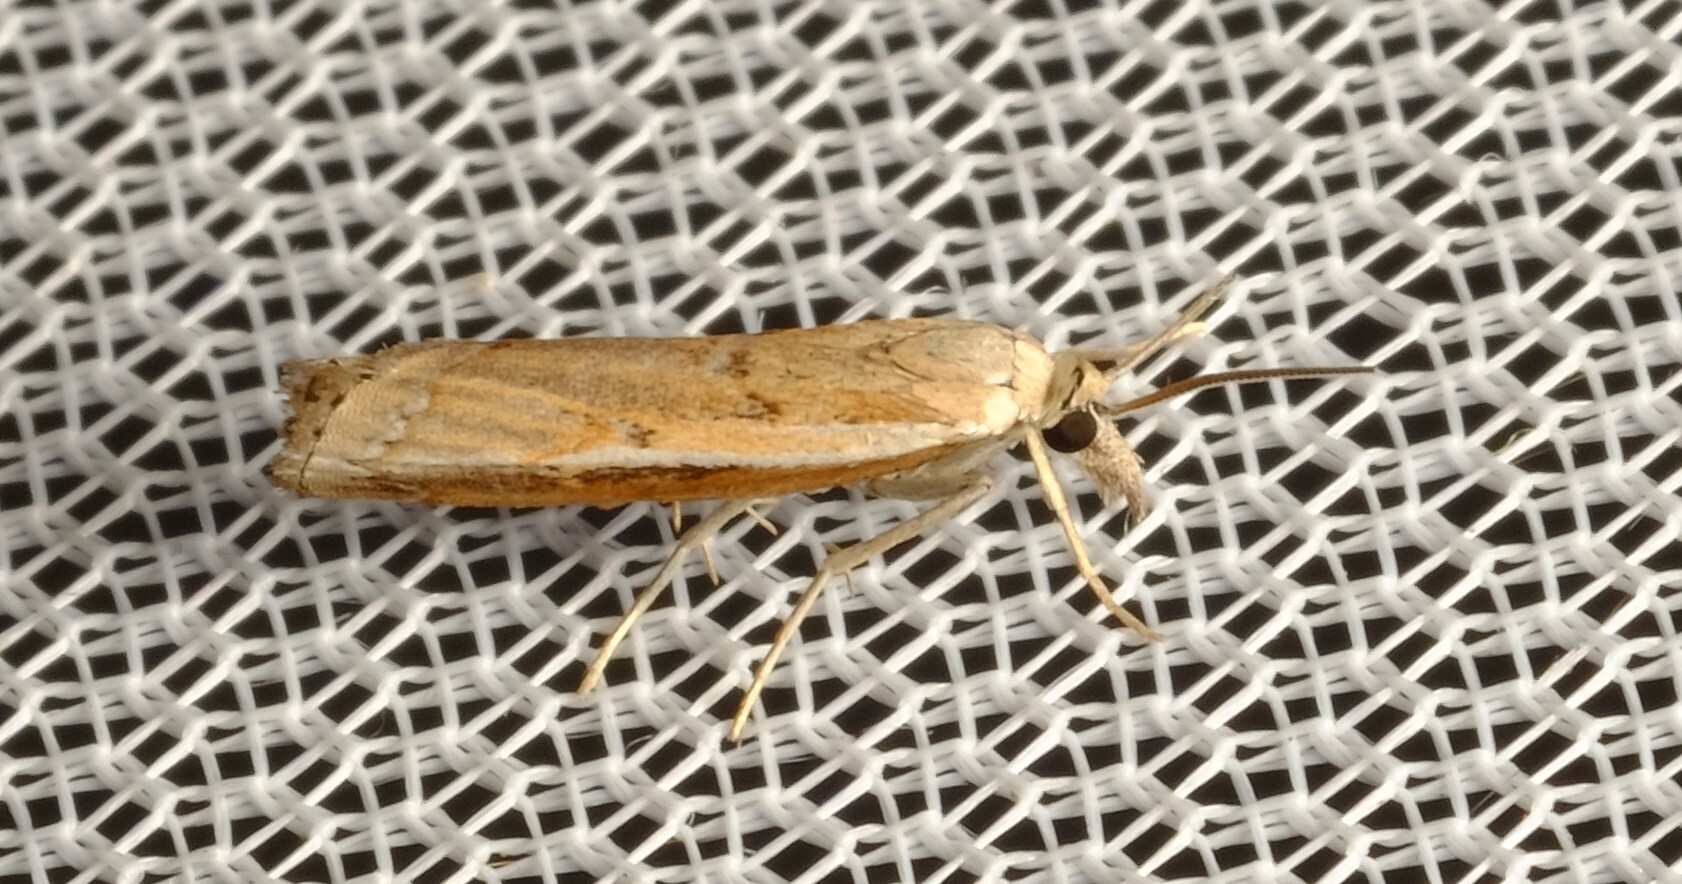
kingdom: Animalia
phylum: Arthropoda
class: Insecta
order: Lepidoptera
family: Crambidae
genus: Ptochostola
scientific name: Ptochostola microphaeellus
